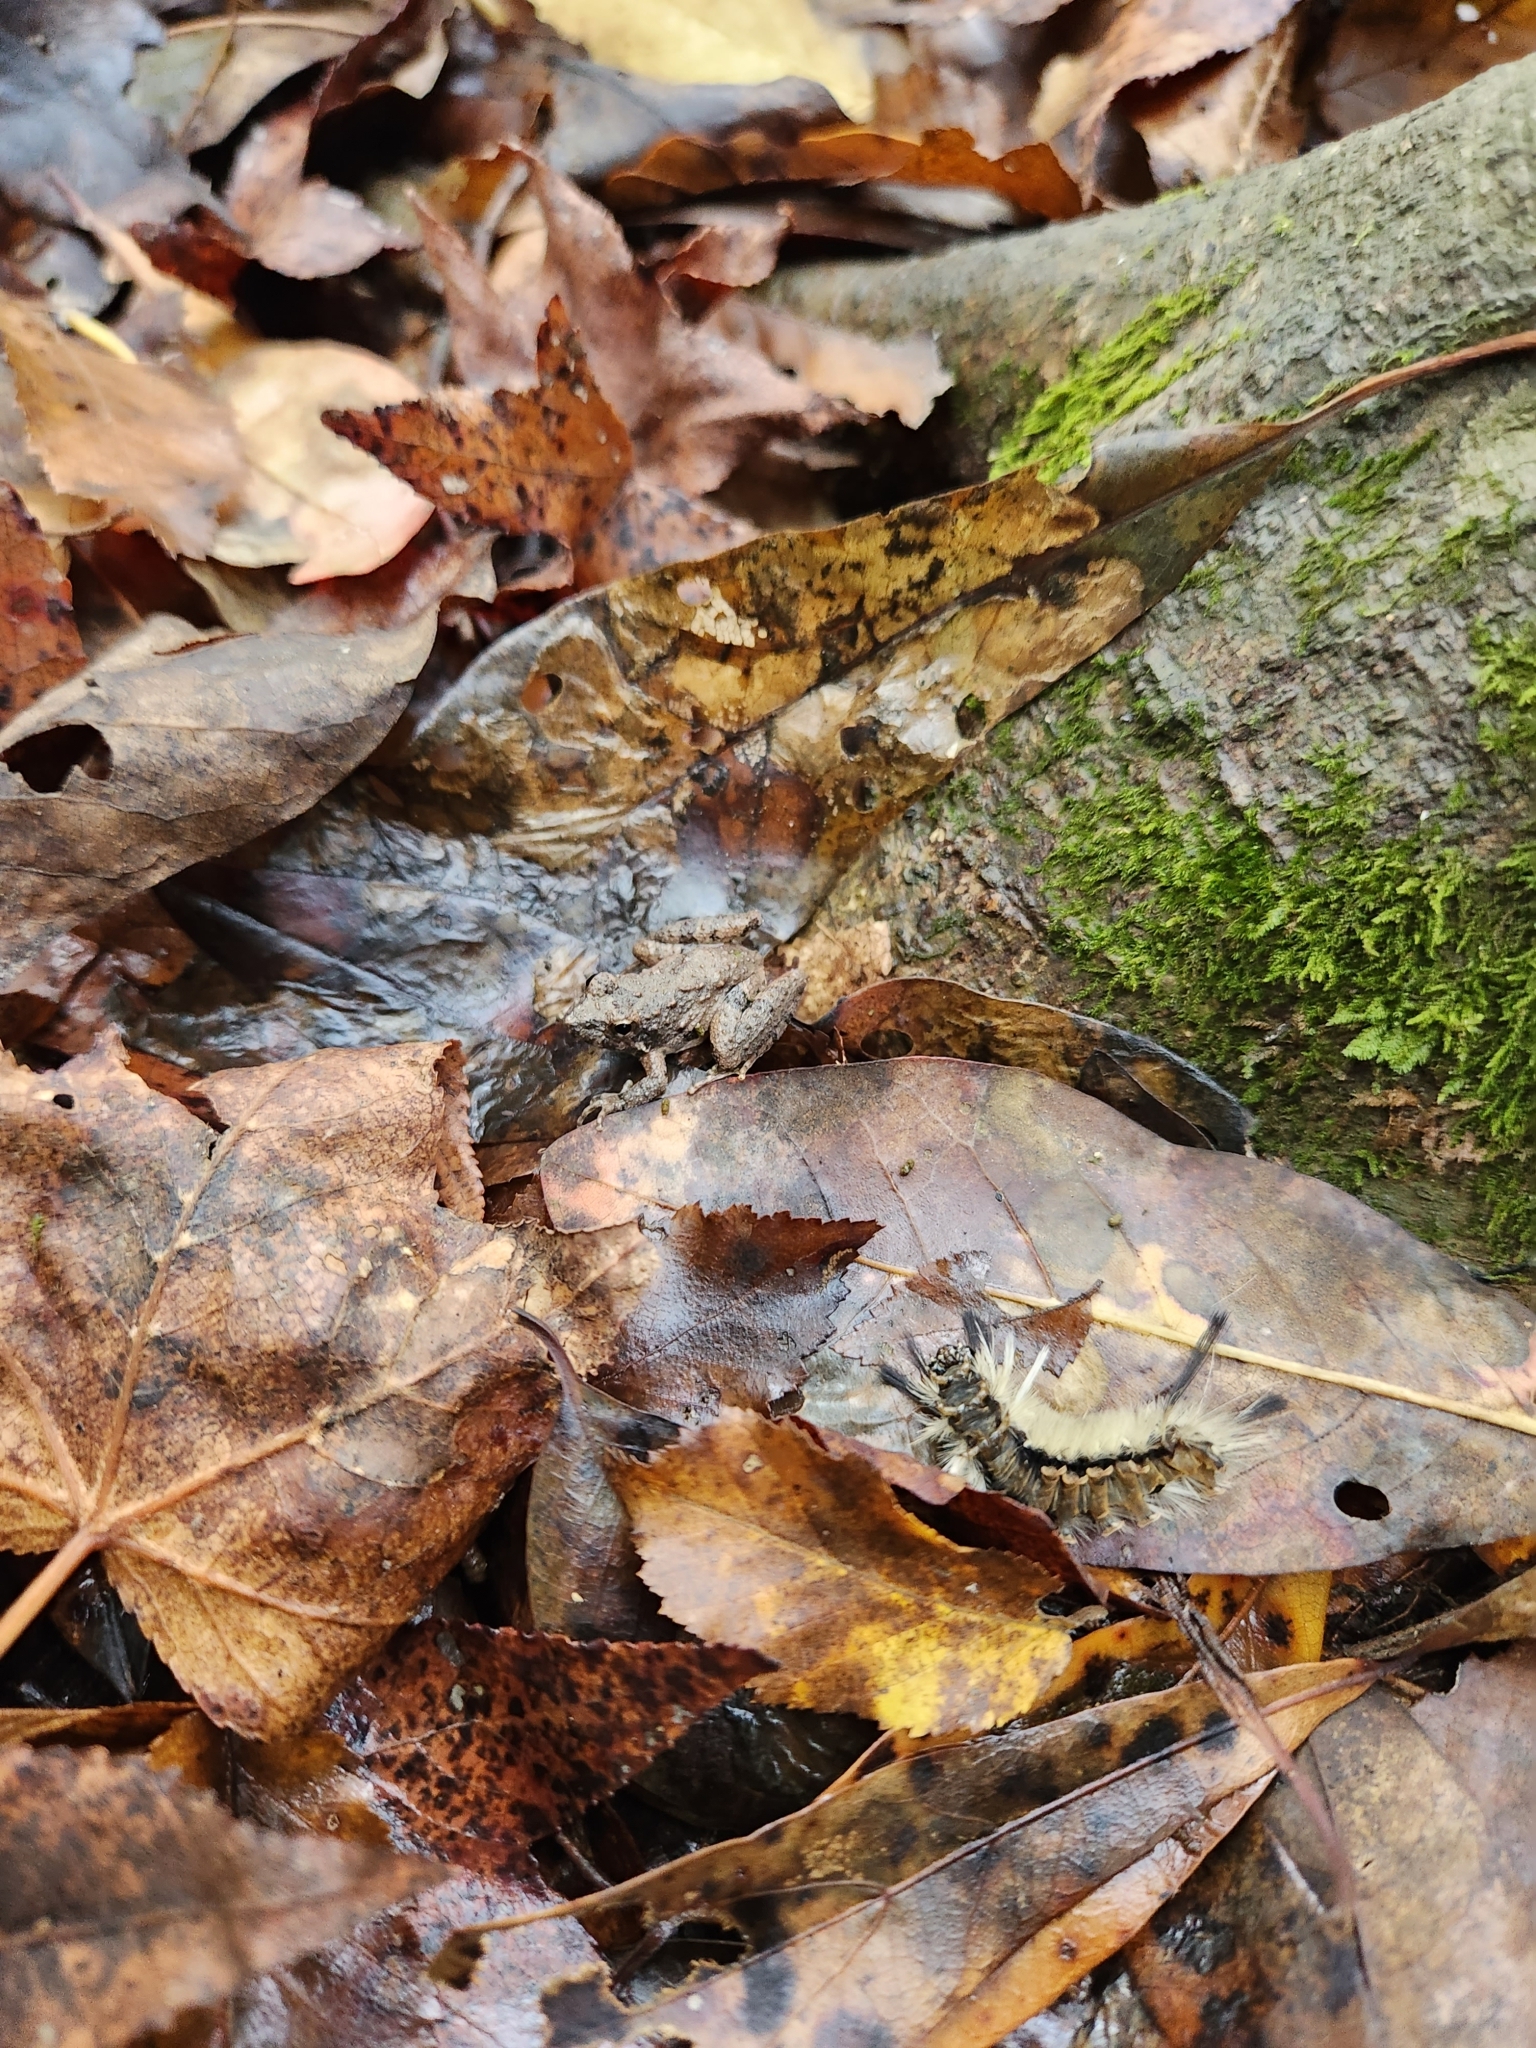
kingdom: Animalia
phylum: Chordata
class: Amphibia
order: Anura
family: Hylidae
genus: Acris
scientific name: Acris blanchardi
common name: Blanchard's cricket frog
